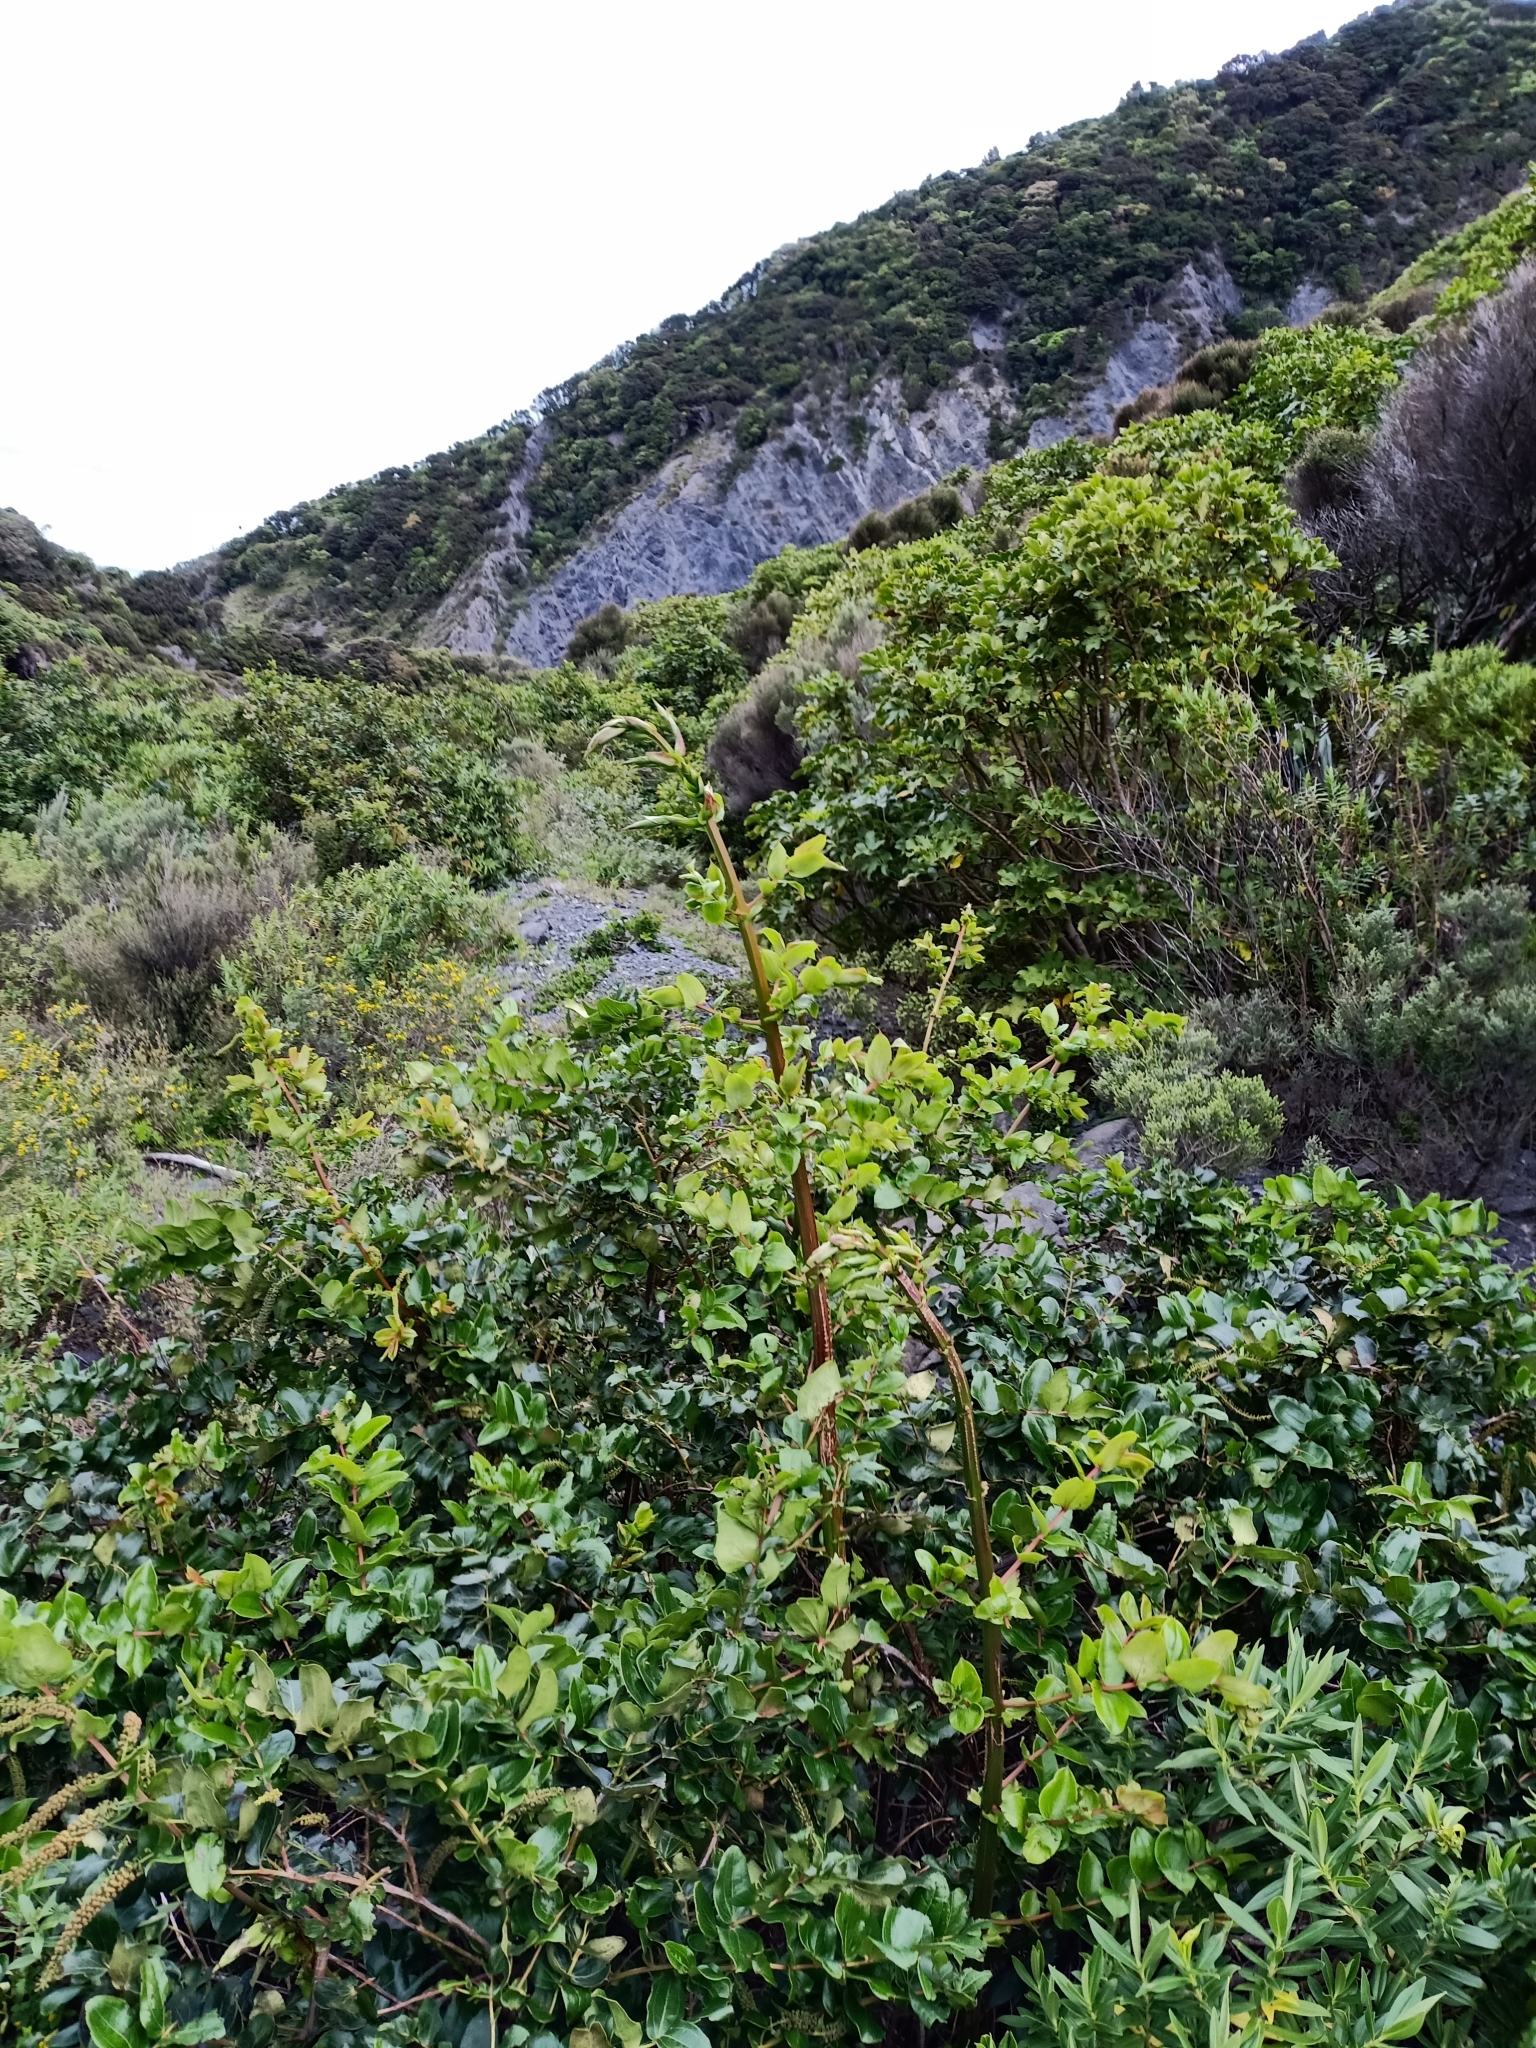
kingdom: Plantae
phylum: Tracheophyta
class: Magnoliopsida
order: Cucurbitales
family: Coriariaceae
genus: Coriaria
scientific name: Coriaria arborea
